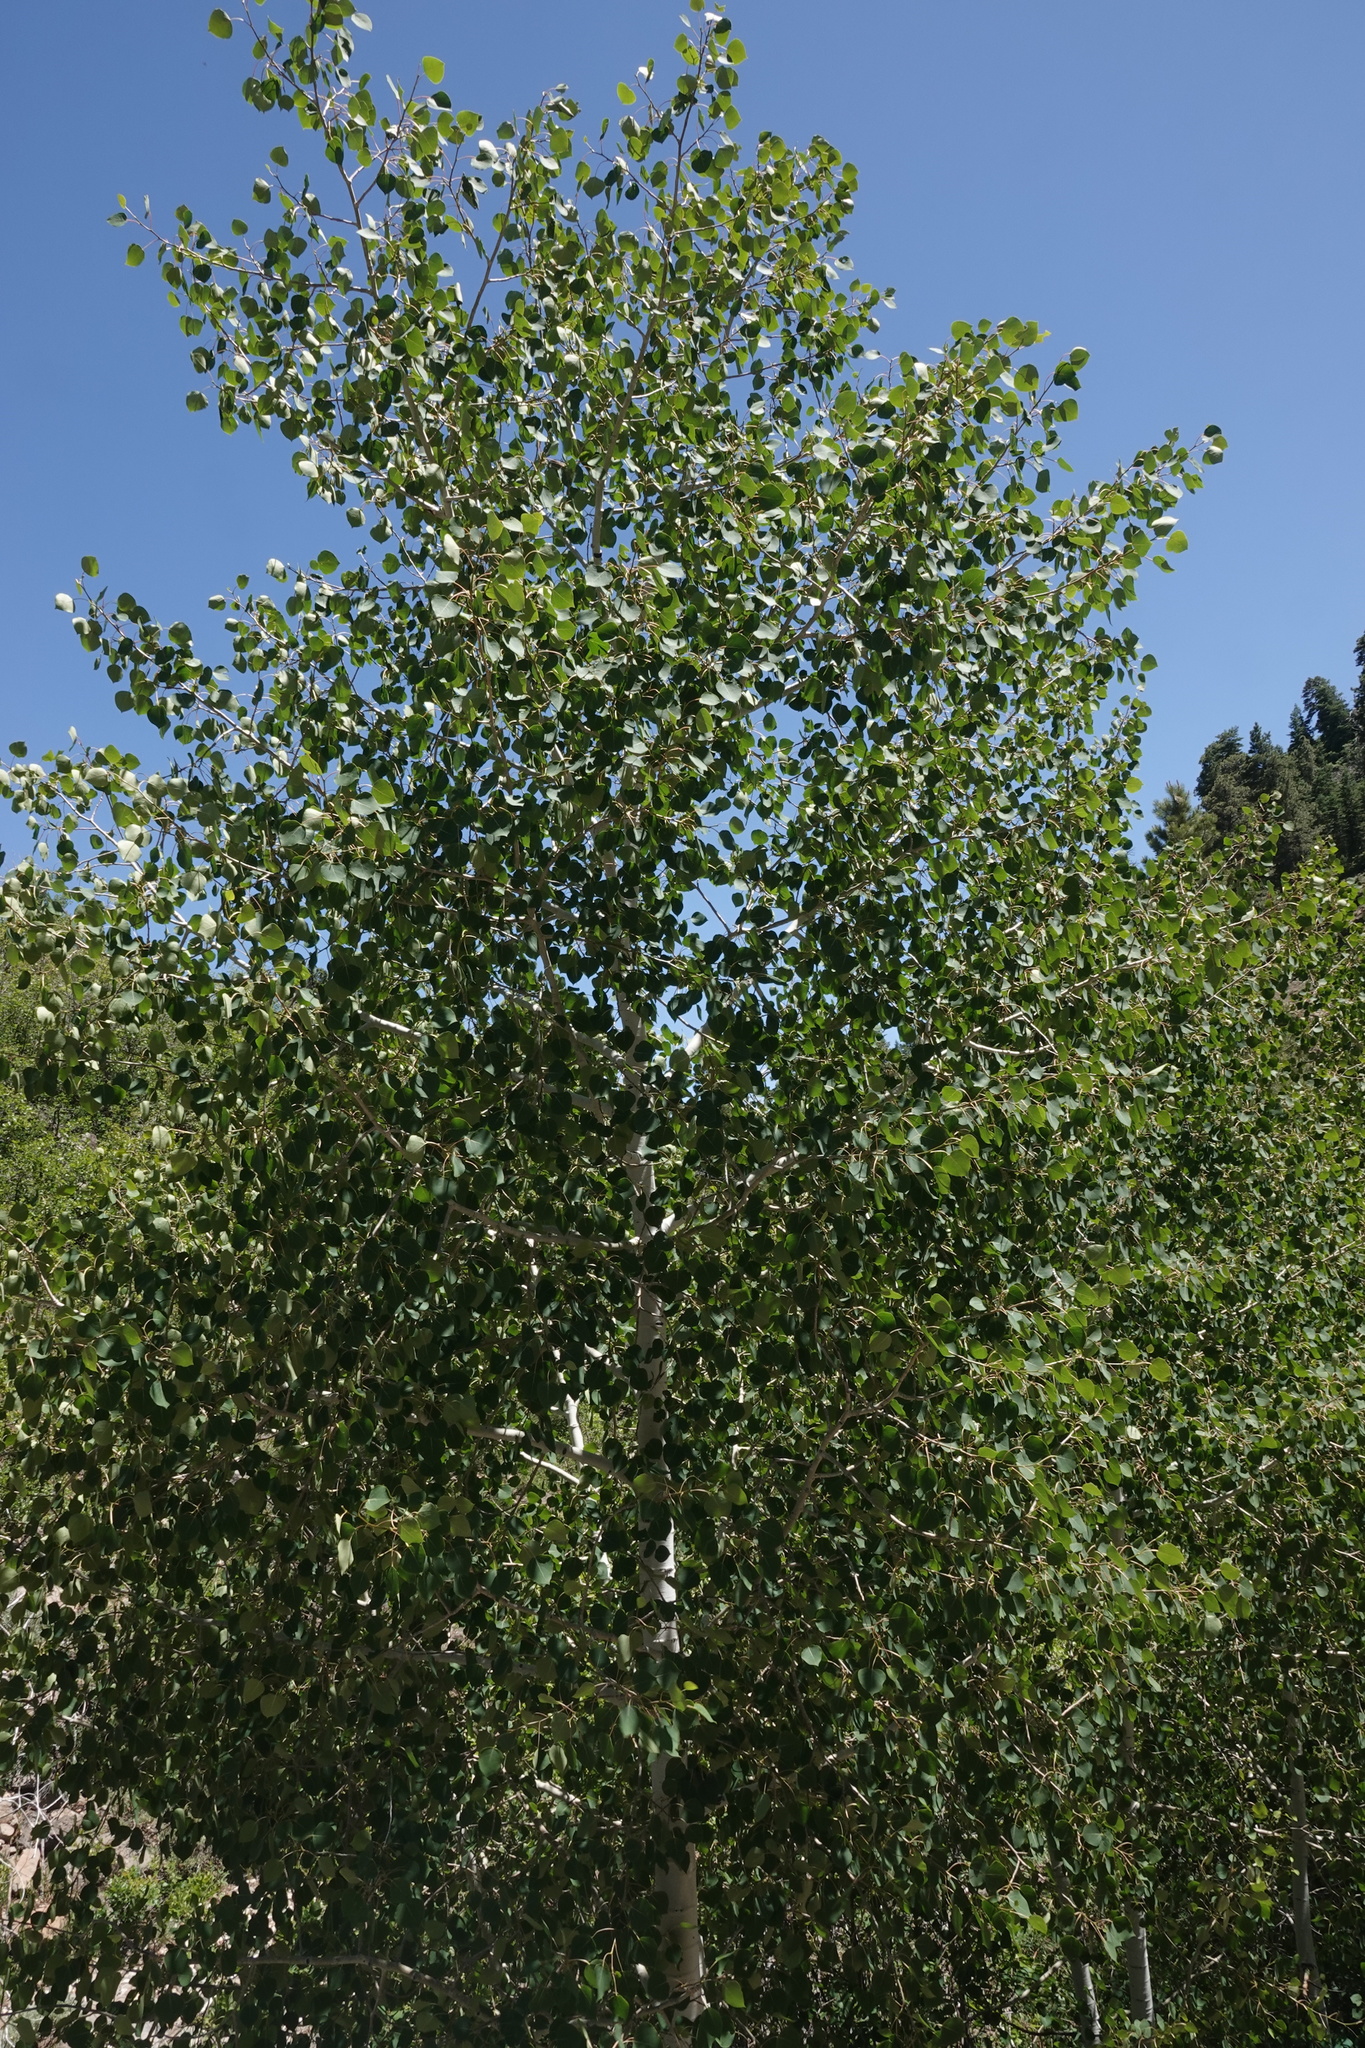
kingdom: Plantae
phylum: Tracheophyta
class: Magnoliopsida
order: Malpighiales
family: Salicaceae
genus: Populus
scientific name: Populus tremuloides
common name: Quaking aspen
